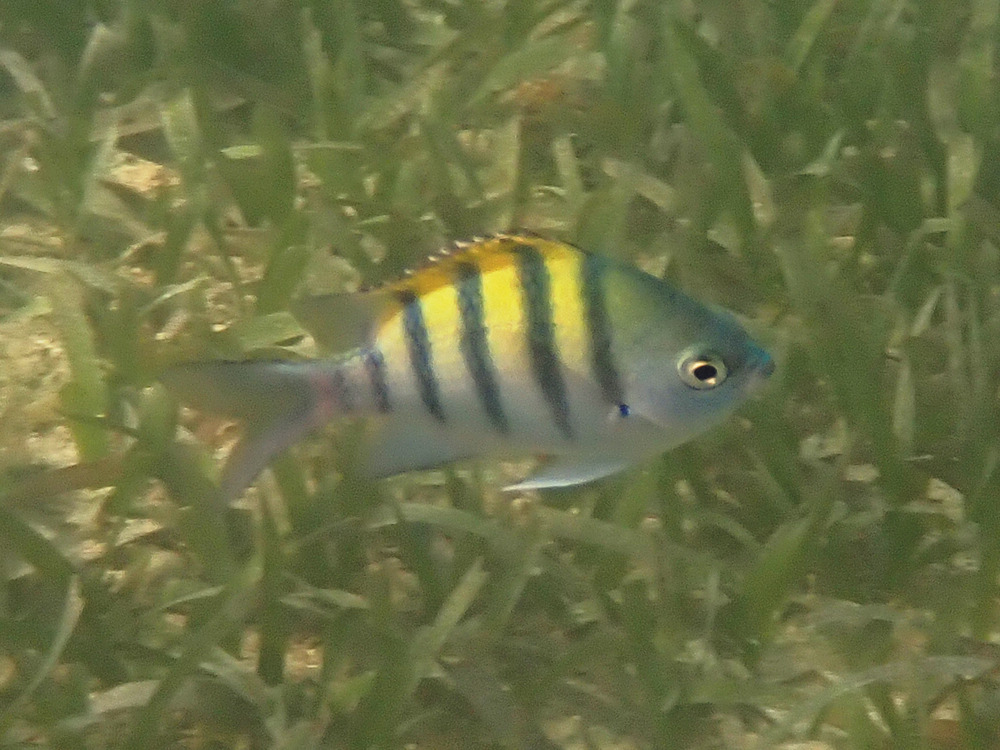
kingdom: Animalia
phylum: Chordata
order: Perciformes
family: Pomacentridae
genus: Abudefduf
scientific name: Abudefduf saxatilis
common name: Sergeant major
